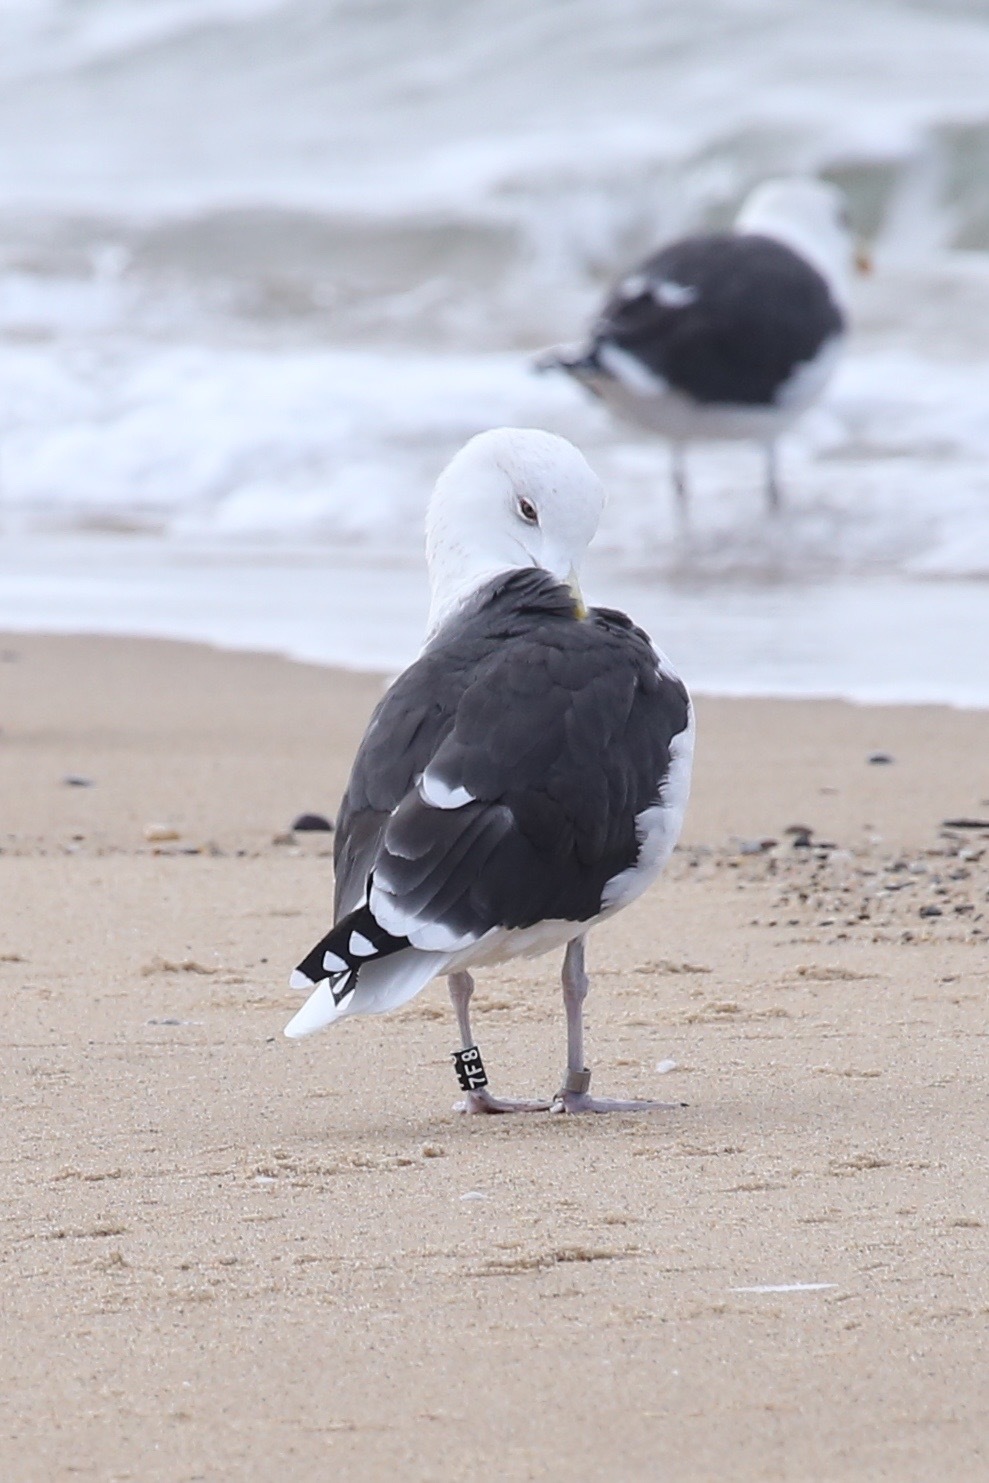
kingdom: Animalia
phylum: Chordata
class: Aves
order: Charadriiformes
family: Laridae
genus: Larus
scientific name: Larus marinus
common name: Great black-backed gull
